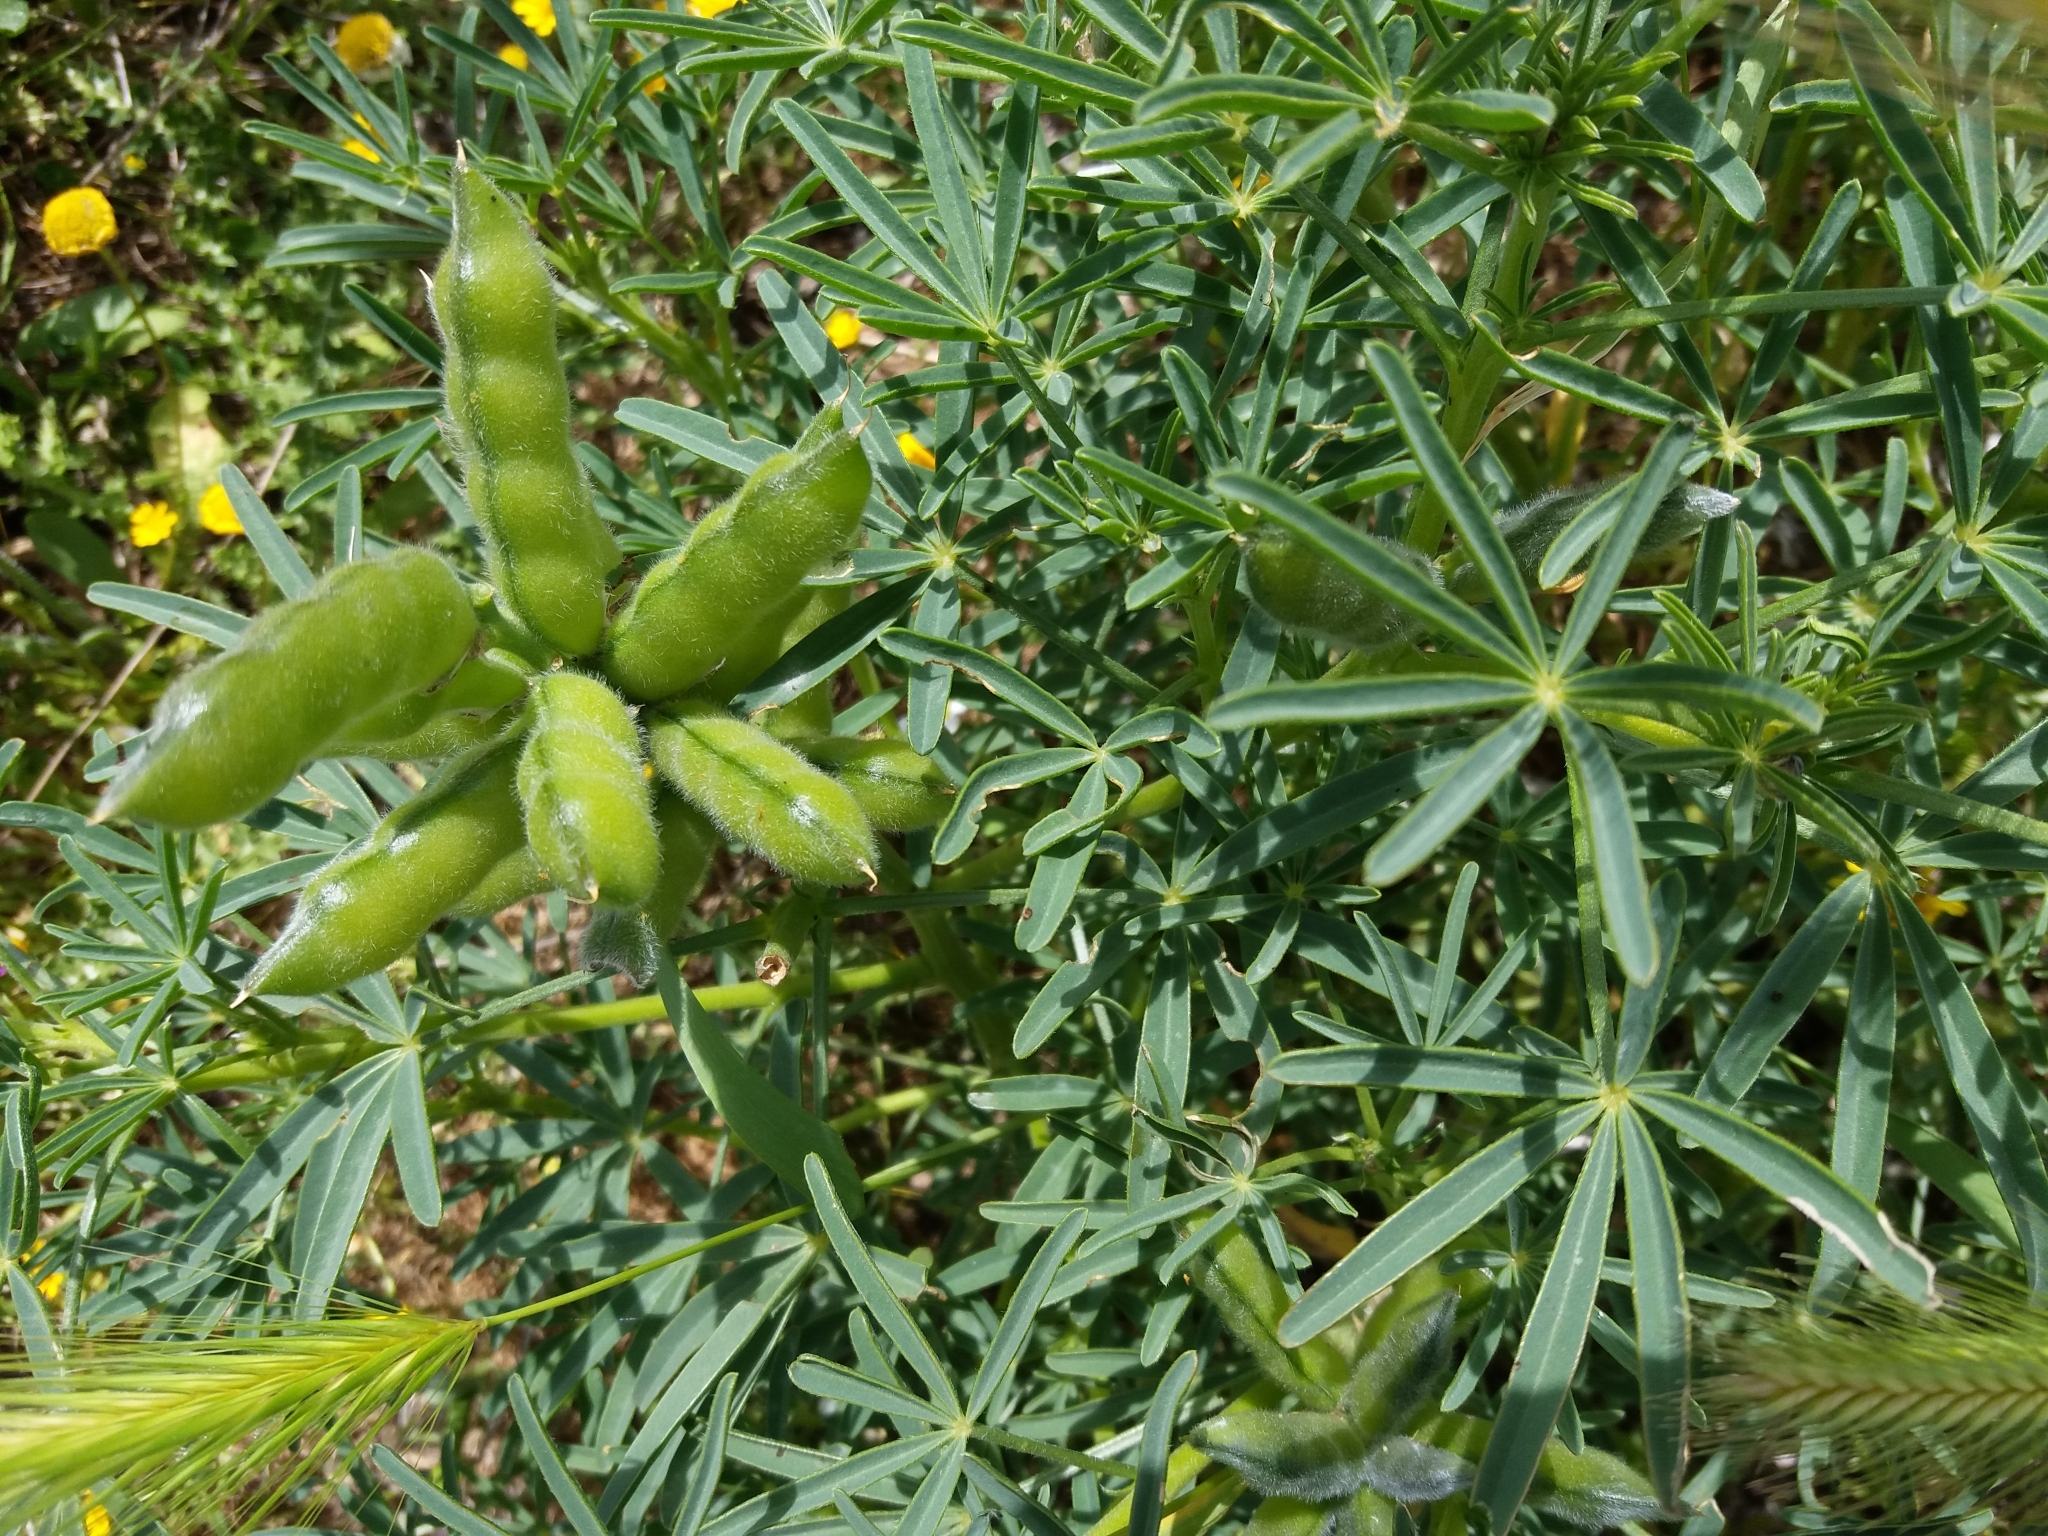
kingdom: Plantae
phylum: Tracheophyta
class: Magnoliopsida
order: Fabales
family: Fabaceae
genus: Lupinus
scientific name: Lupinus angustifolius
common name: Narrow-leaved lupin
